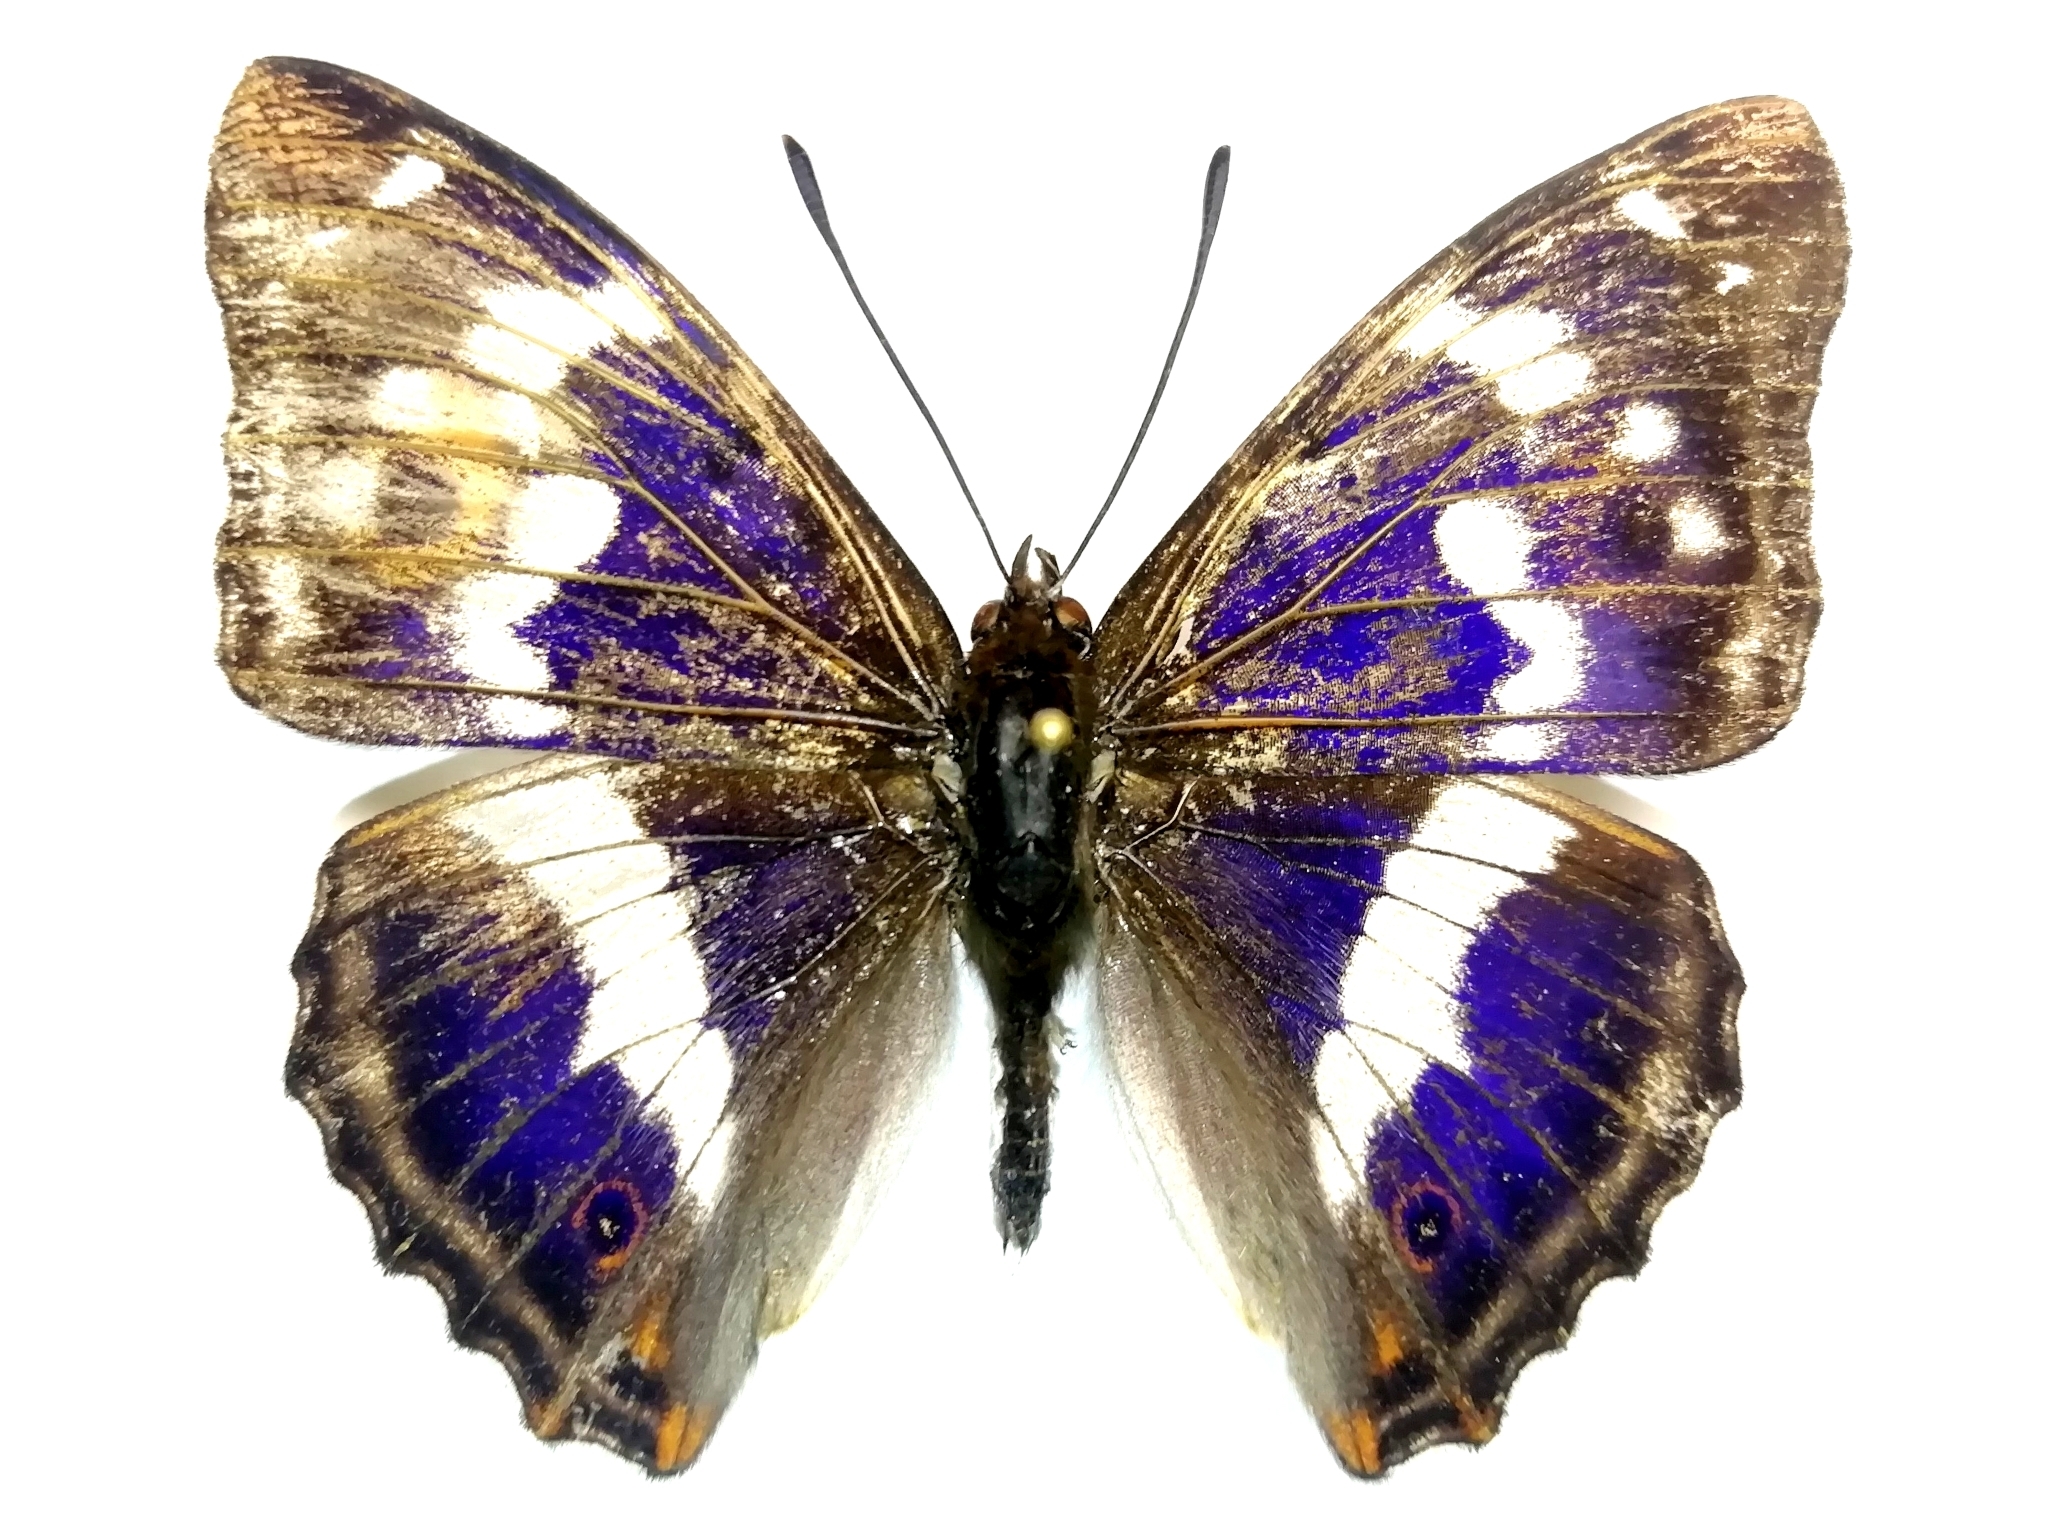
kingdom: Animalia
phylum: Arthropoda
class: Insecta
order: Lepidoptera
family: Nymphalidae
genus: Apatura
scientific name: Apatura iris
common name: Purple emperor
